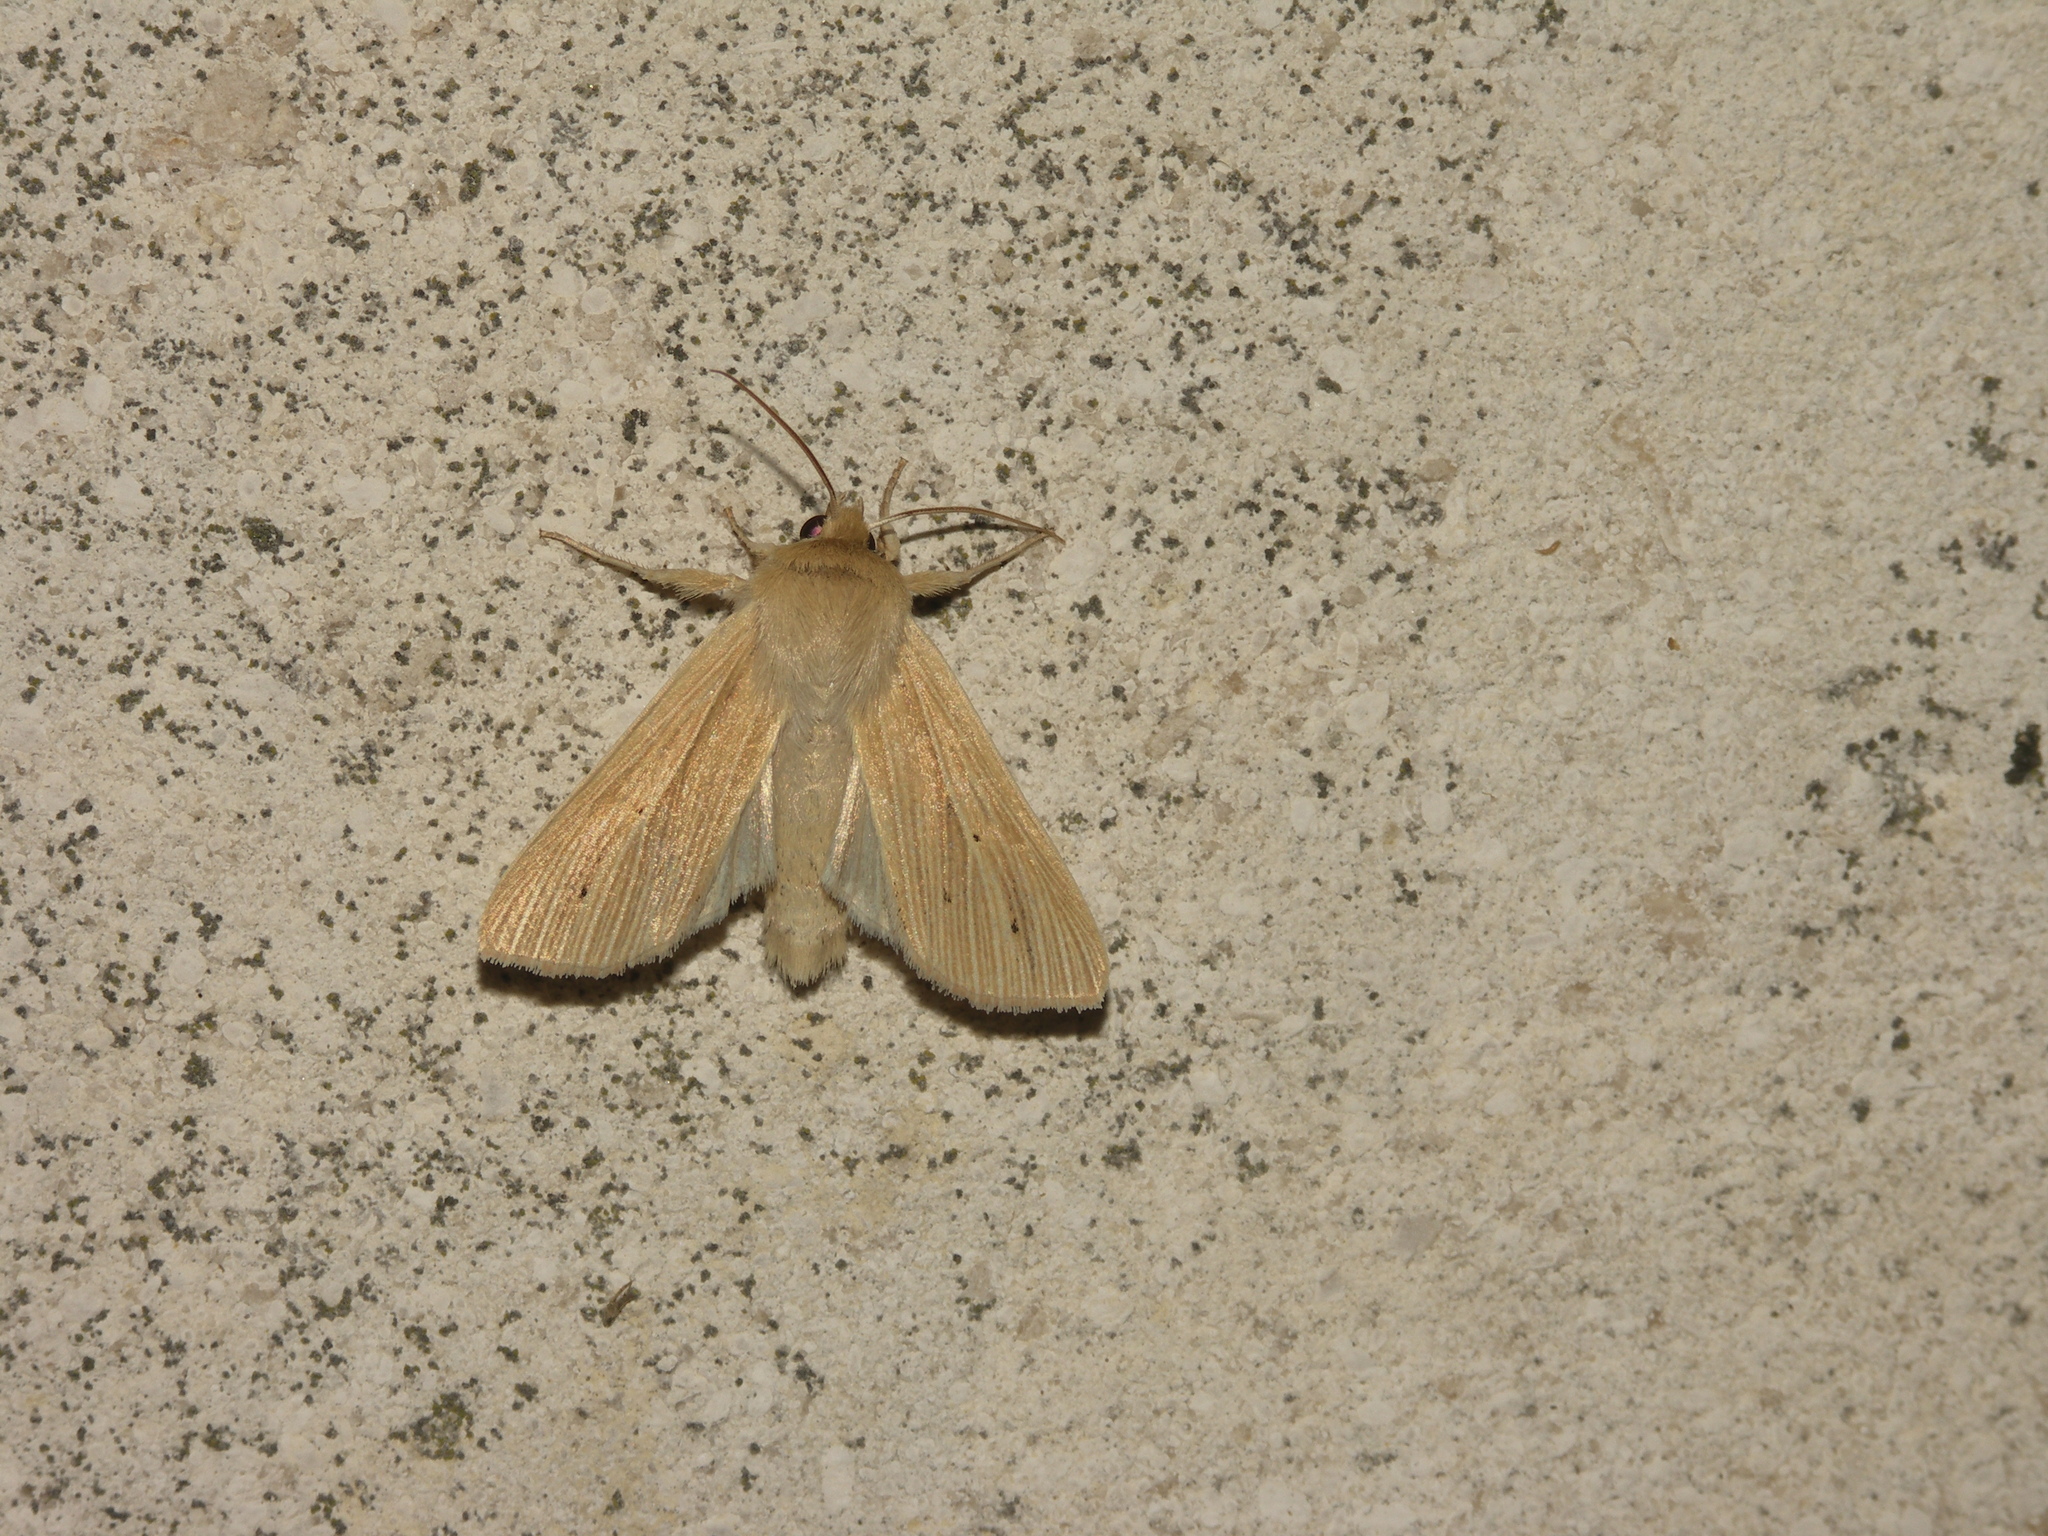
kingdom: Animalia
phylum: Arthropoda
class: Insecta
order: Lepidoptera
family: Noctuidae
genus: Mythimna
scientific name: Mythimna pallens
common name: Common wainscot
